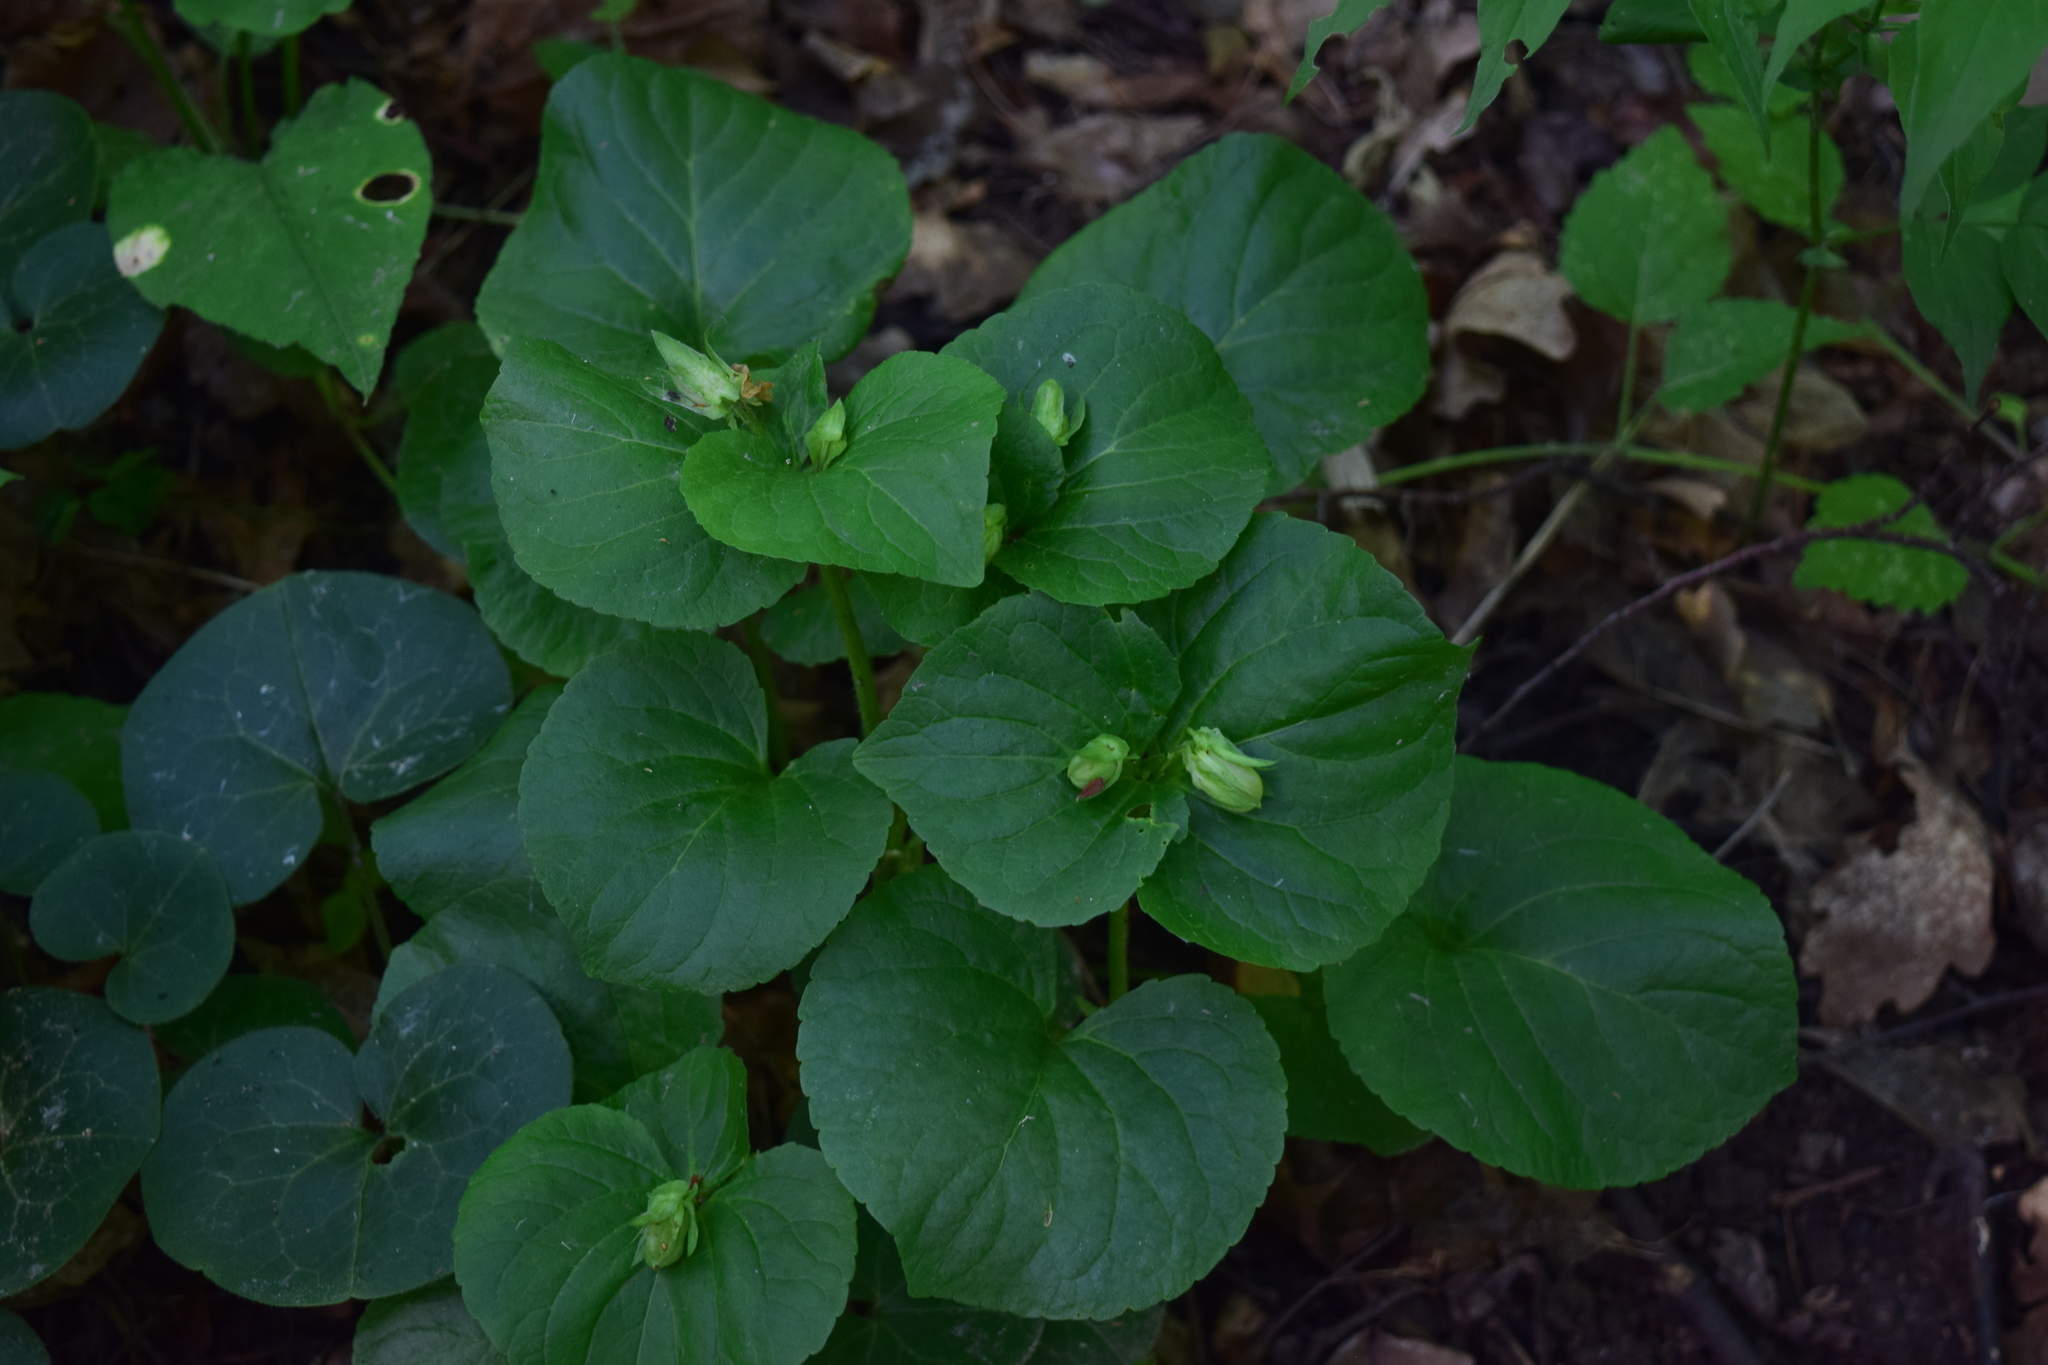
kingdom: Plantae
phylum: Tracheophyta
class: Magnoliopsida
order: Malpighiales
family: Violaceae
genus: Viola
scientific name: Viola mirabilis
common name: Wonder violet
